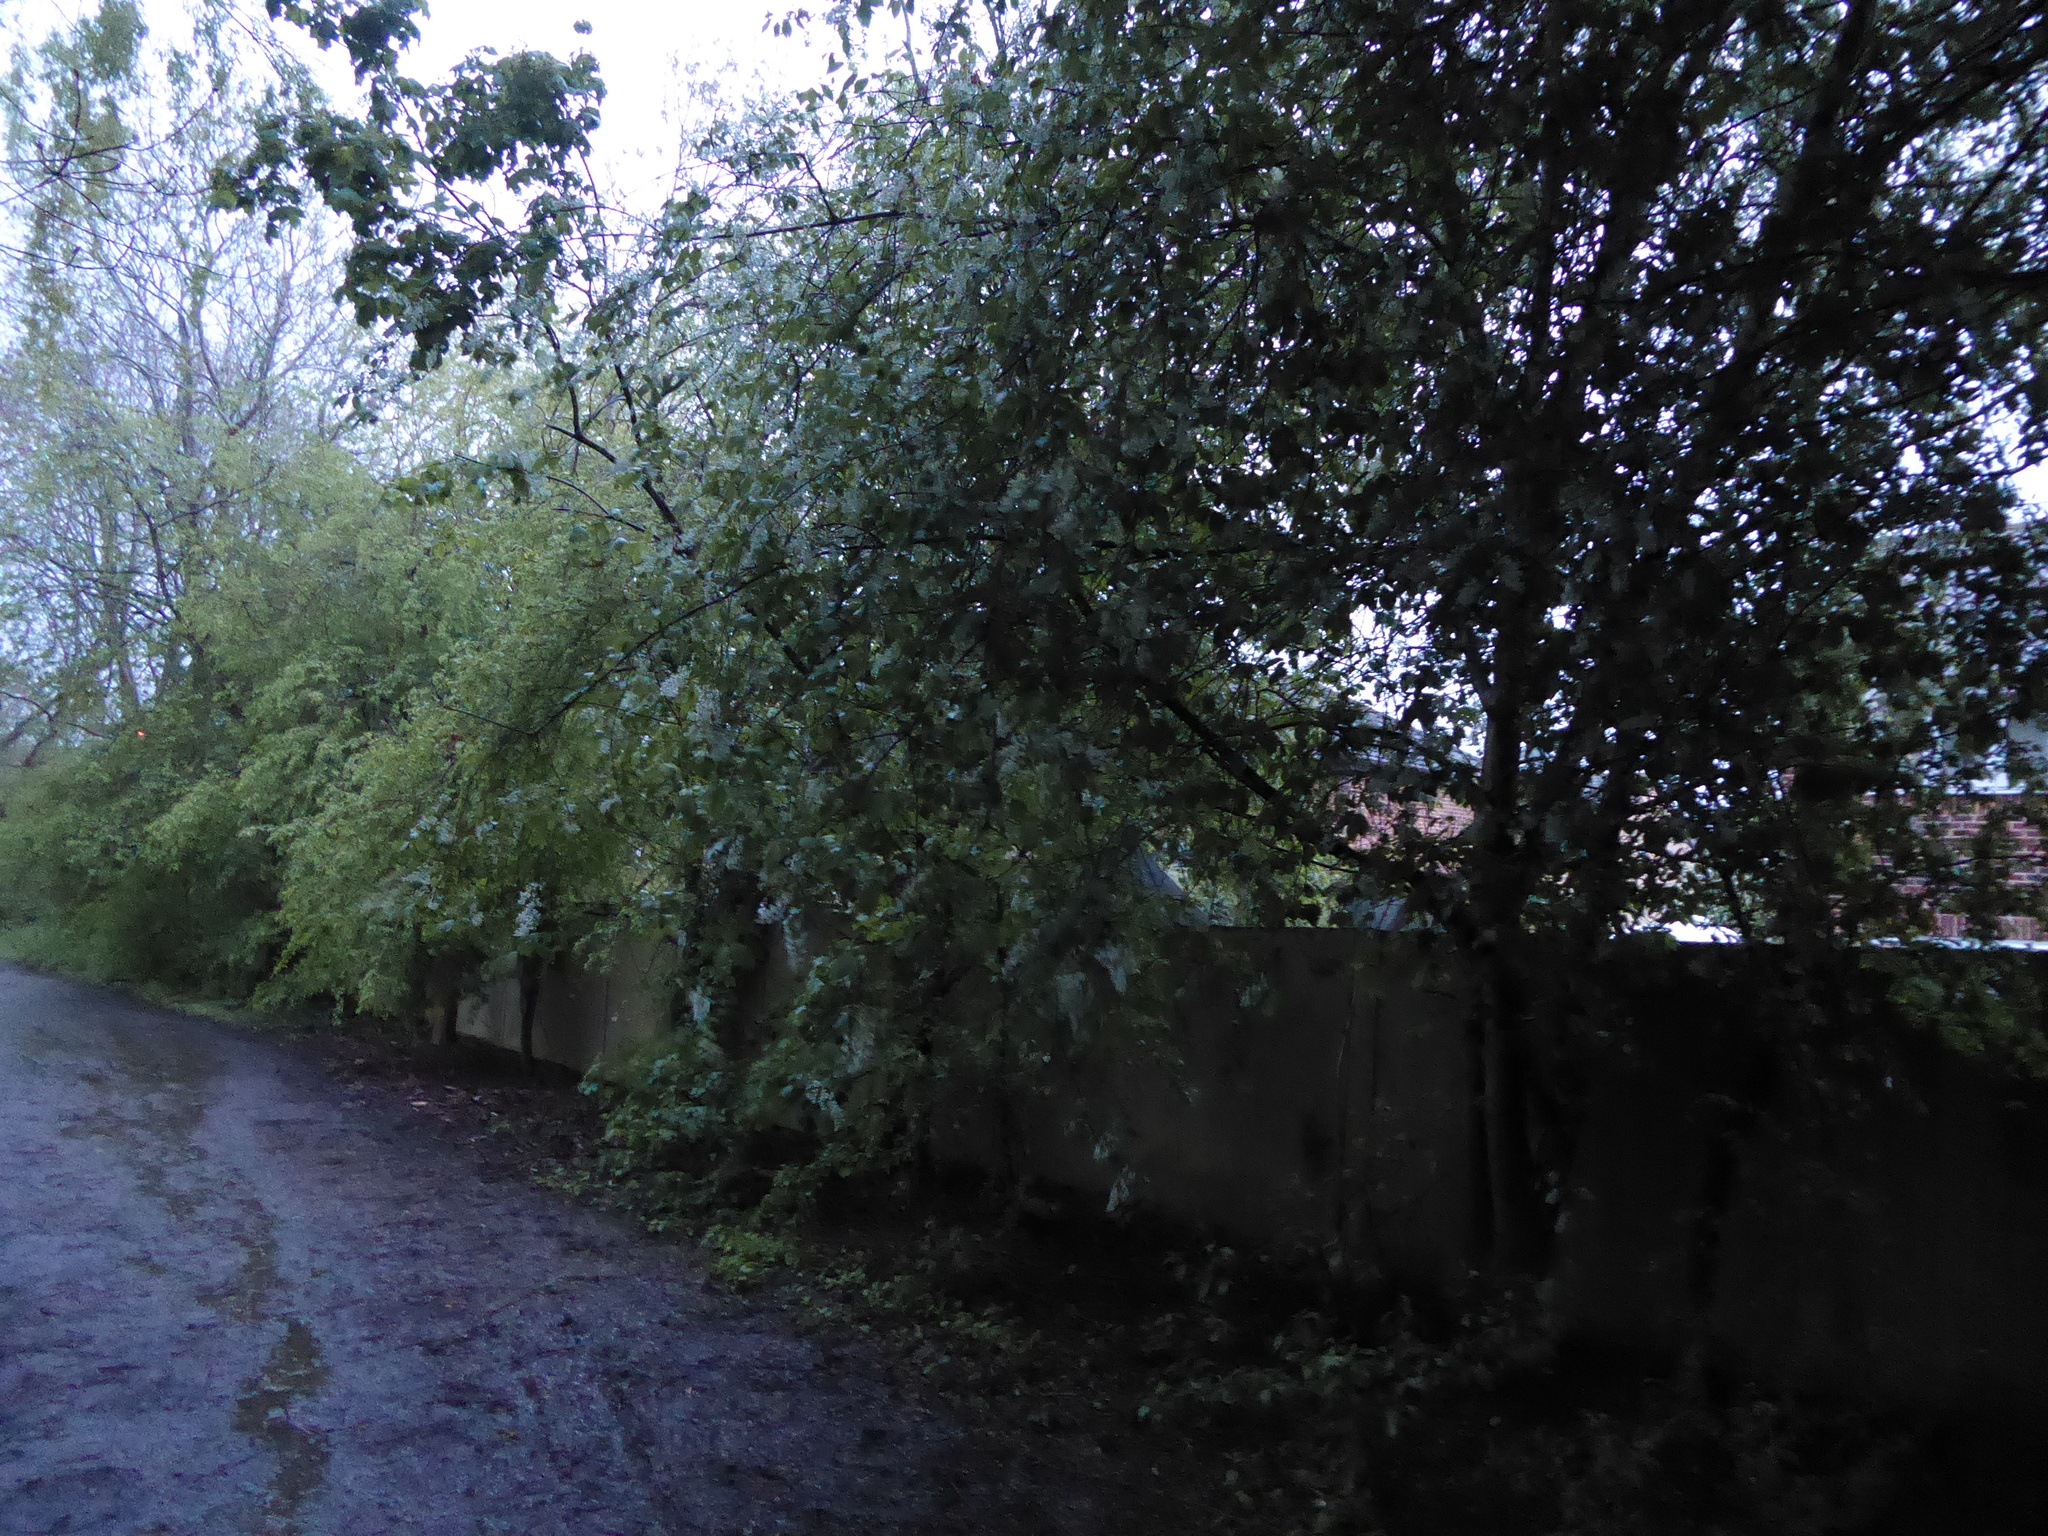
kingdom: Plantae
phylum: Tracheophyta
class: Magnoliopsida
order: Rosales
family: Rosaceae
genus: Prunus
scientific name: Prunus padus
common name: Bird cherry
